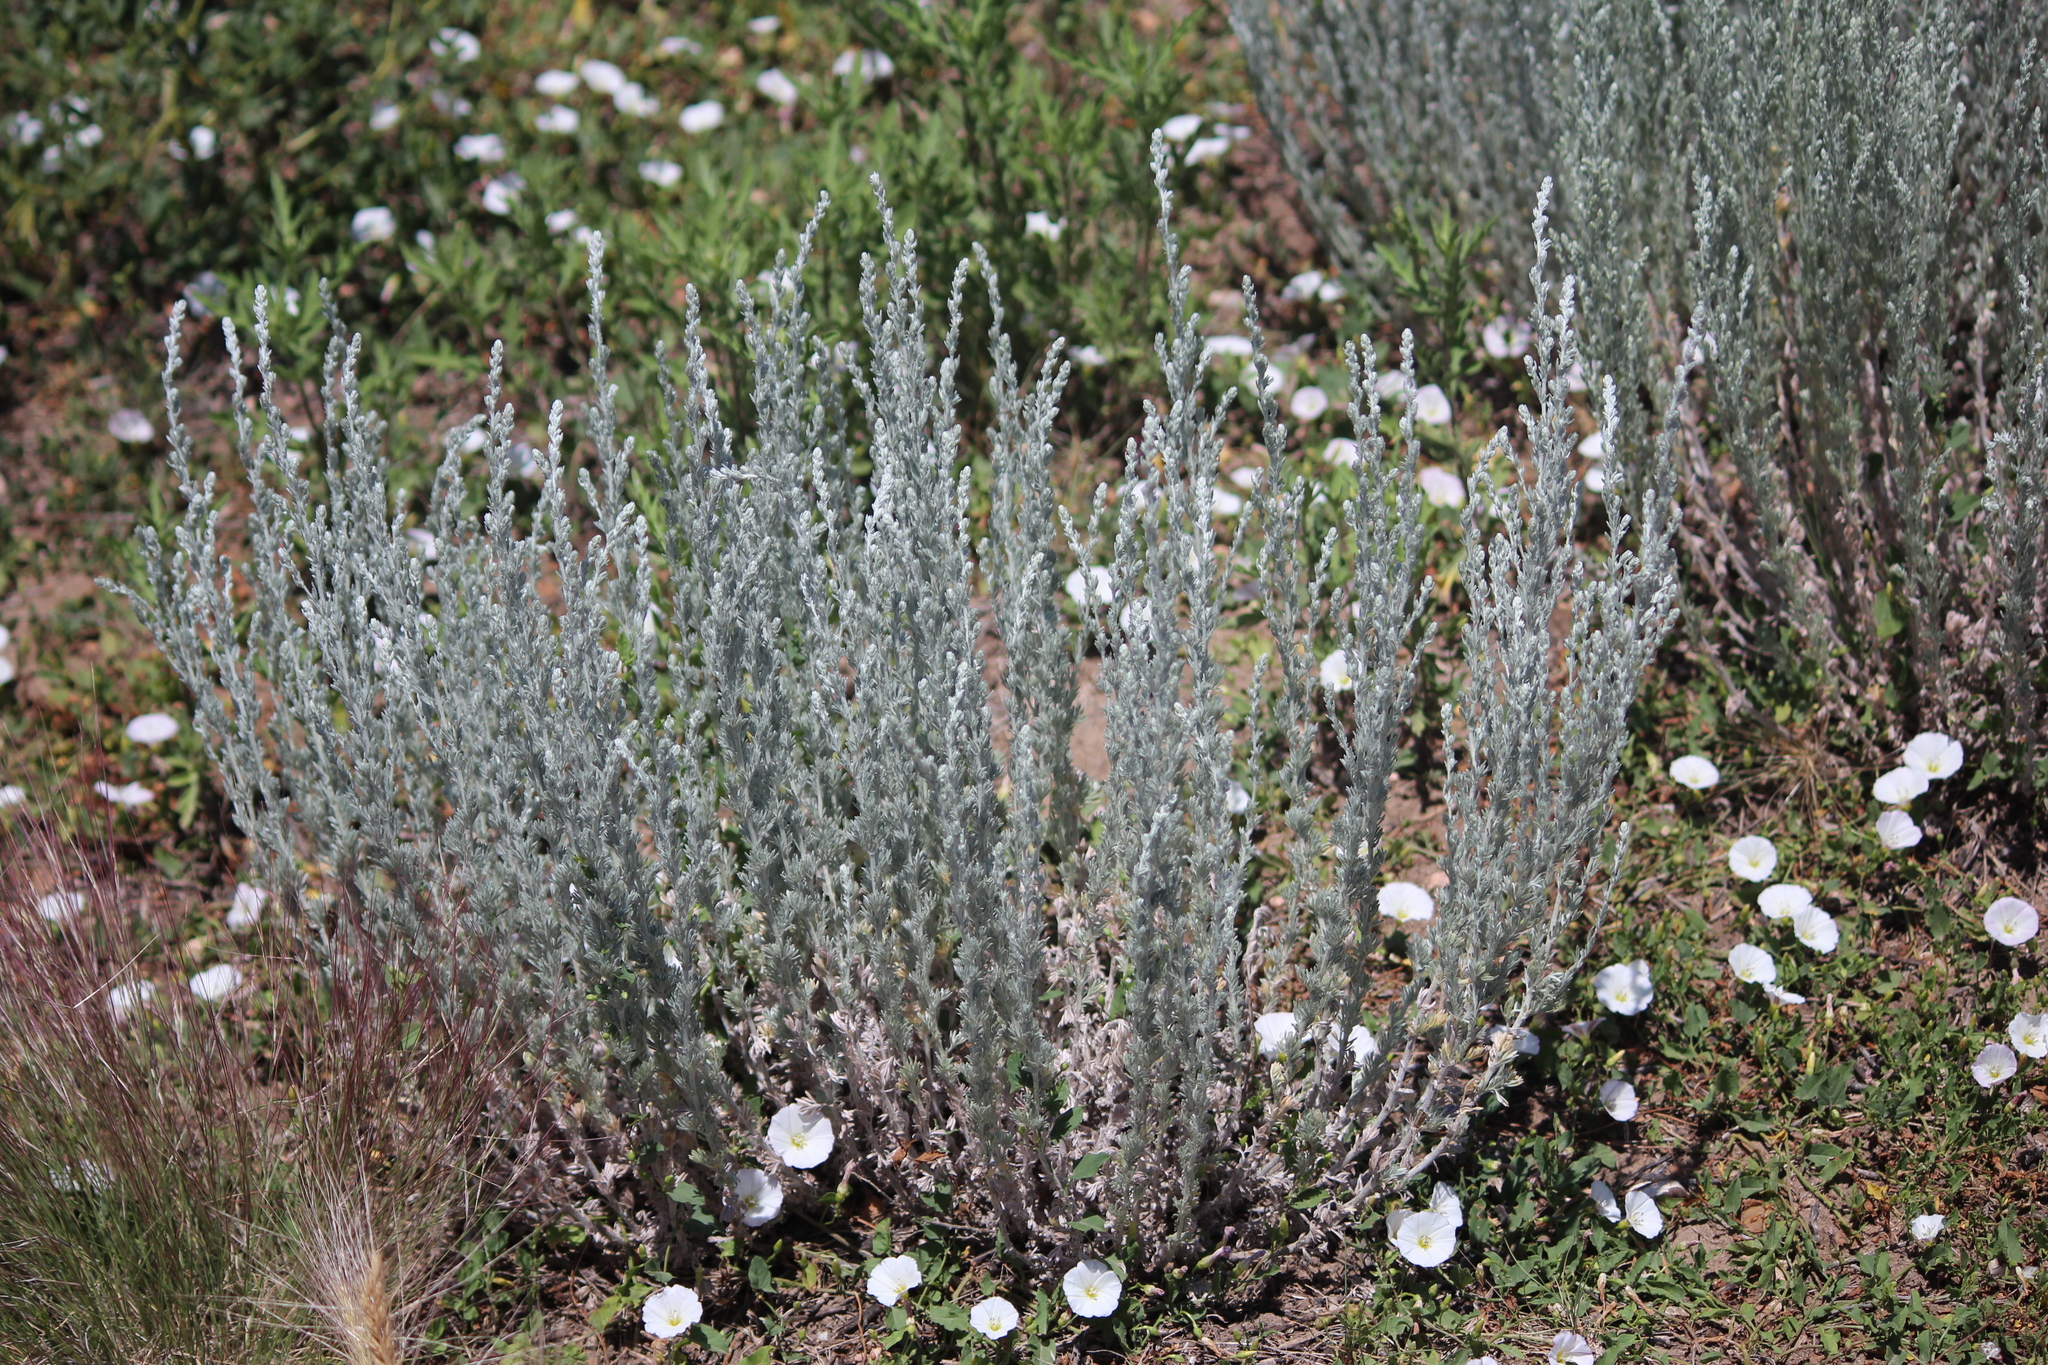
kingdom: Plantae
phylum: Tracheophyta
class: Magnoliopsida
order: Asterales
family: Asteraceae
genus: Artemisia
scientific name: Artemisia frigida
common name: Prairie sagewort
